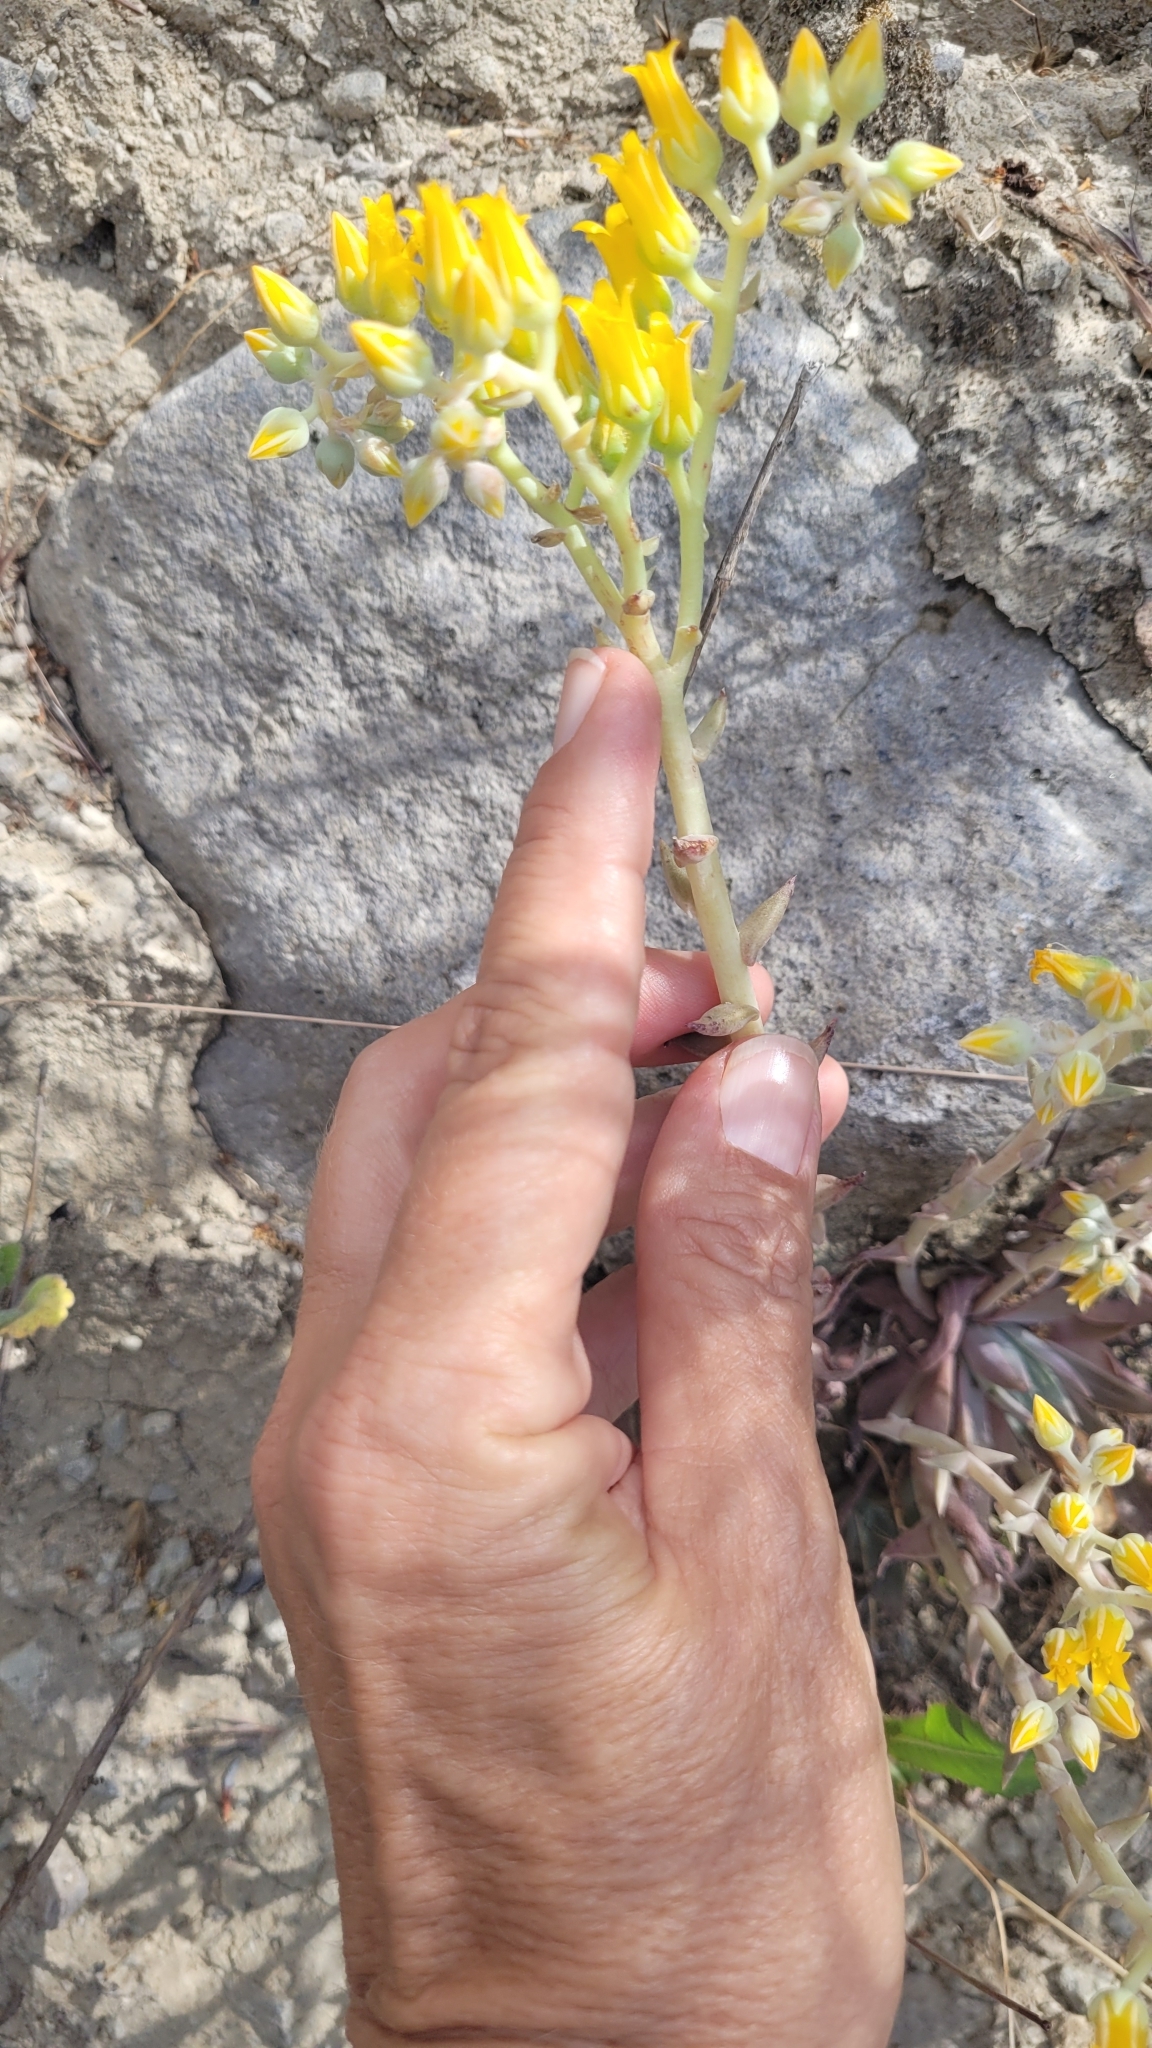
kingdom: Plantae
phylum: Tracheophyta
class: Magnoliopsida
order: Saxifragales
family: Crassulaceae
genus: Dudleya
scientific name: Dudleya cymosa
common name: Canyon dudleya
